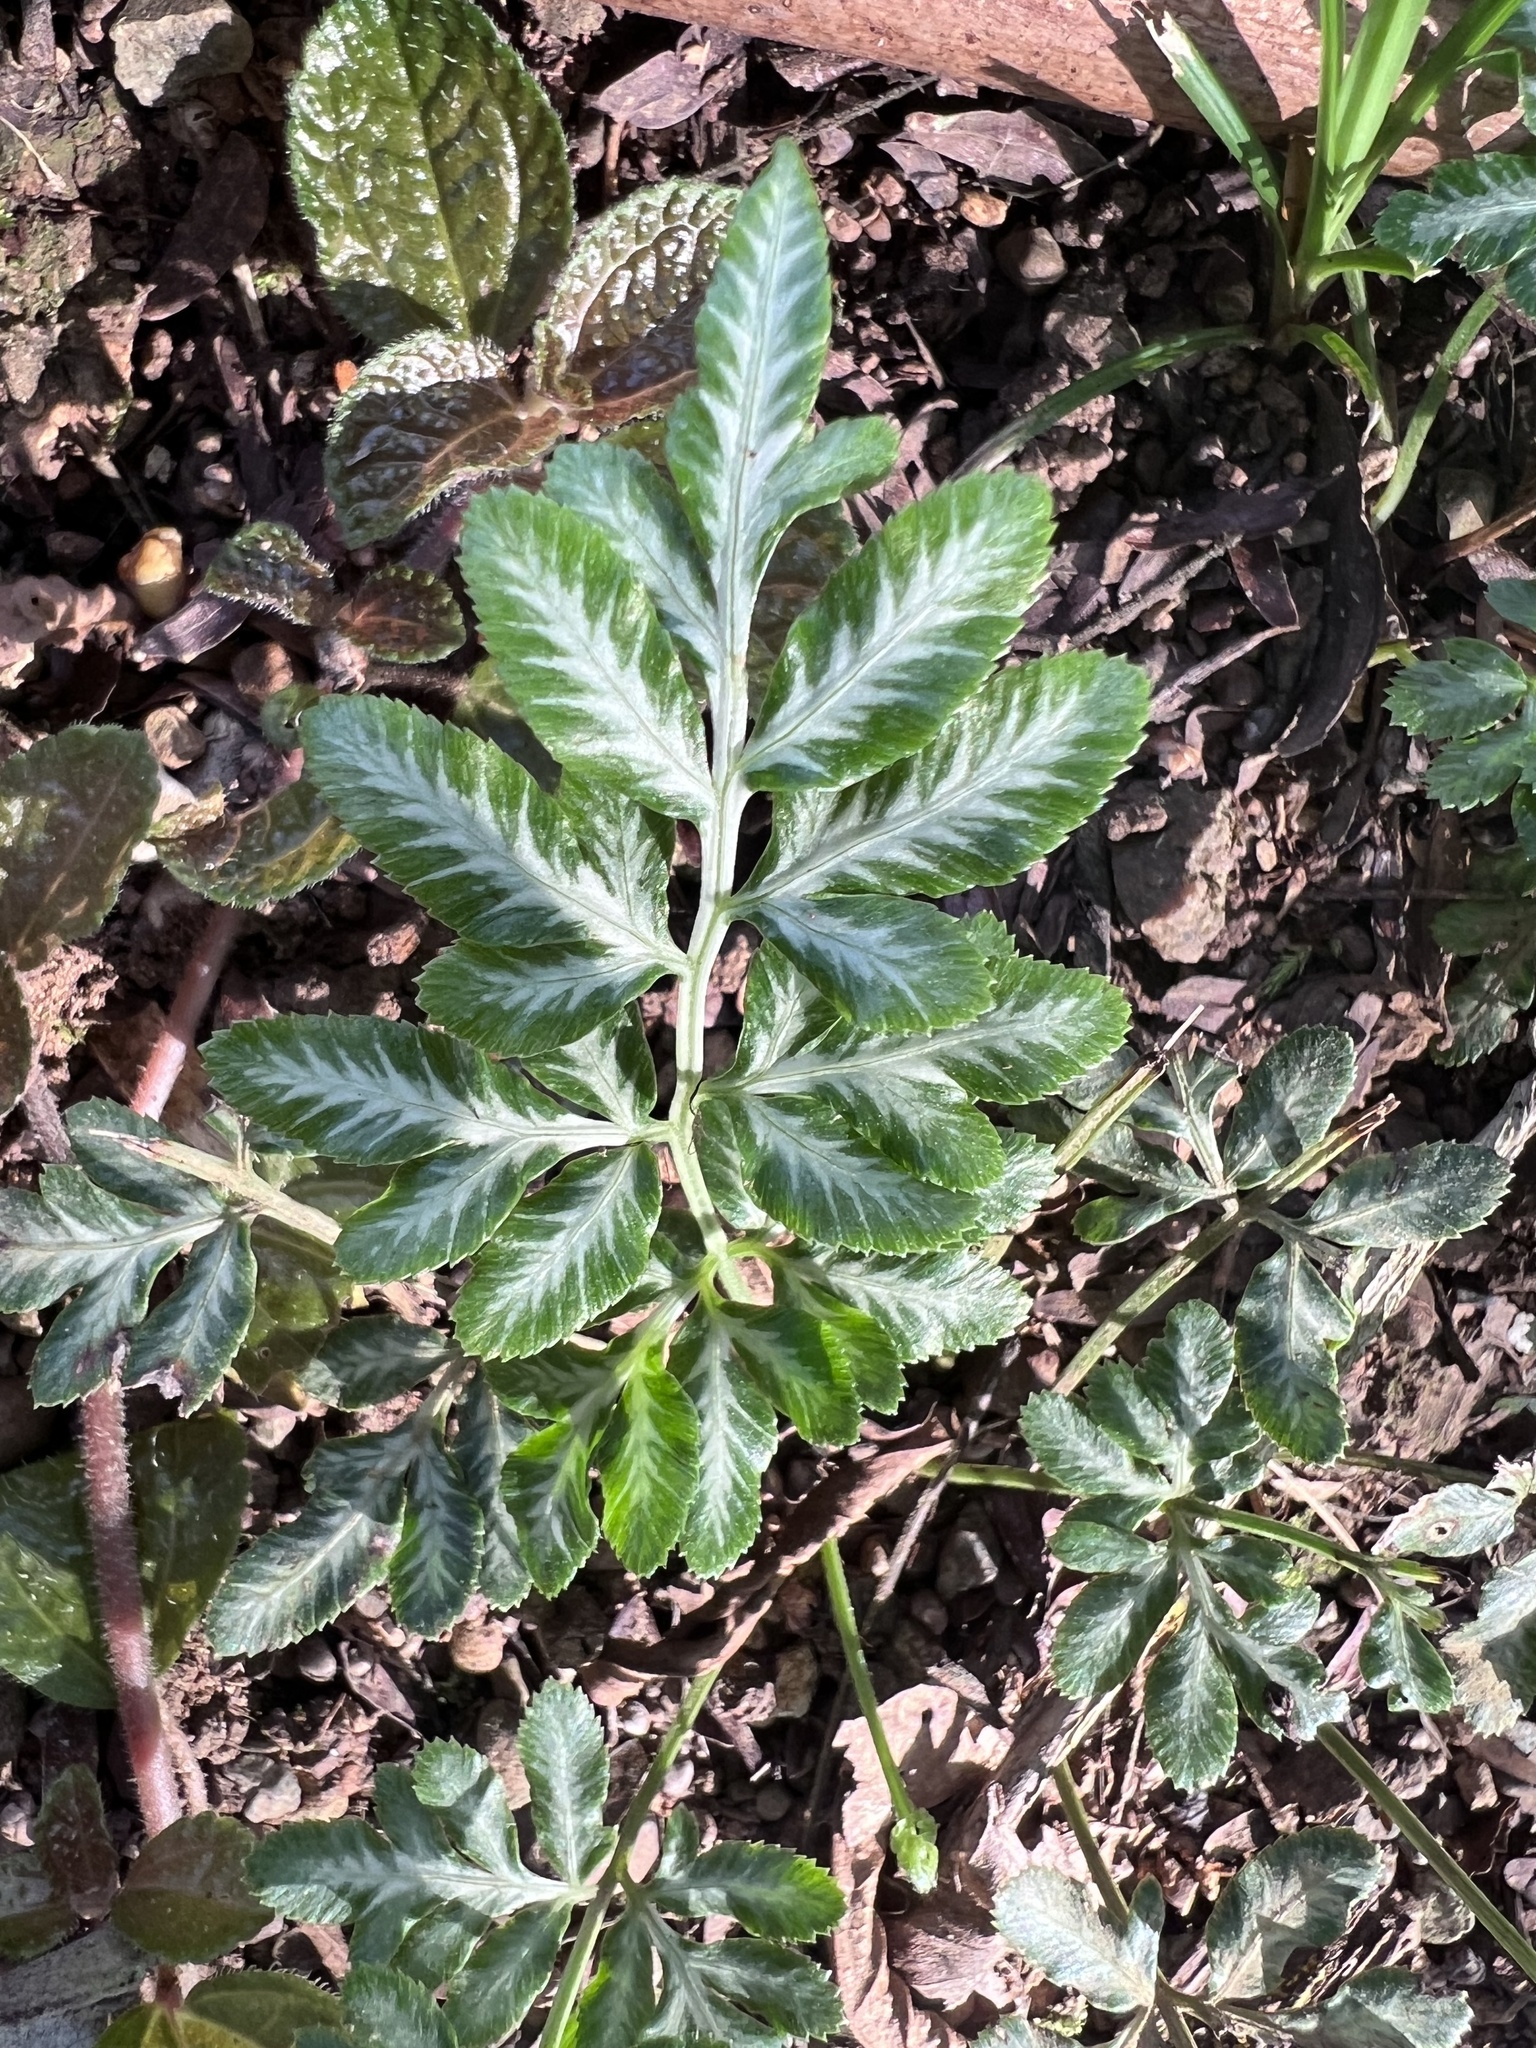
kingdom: Plantae
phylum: Tracheophyta
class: Polypodiopsida
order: Polypodiales
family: Pteridaceae
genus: Pteris
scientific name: Pteris ensiformis
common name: Sword brake
